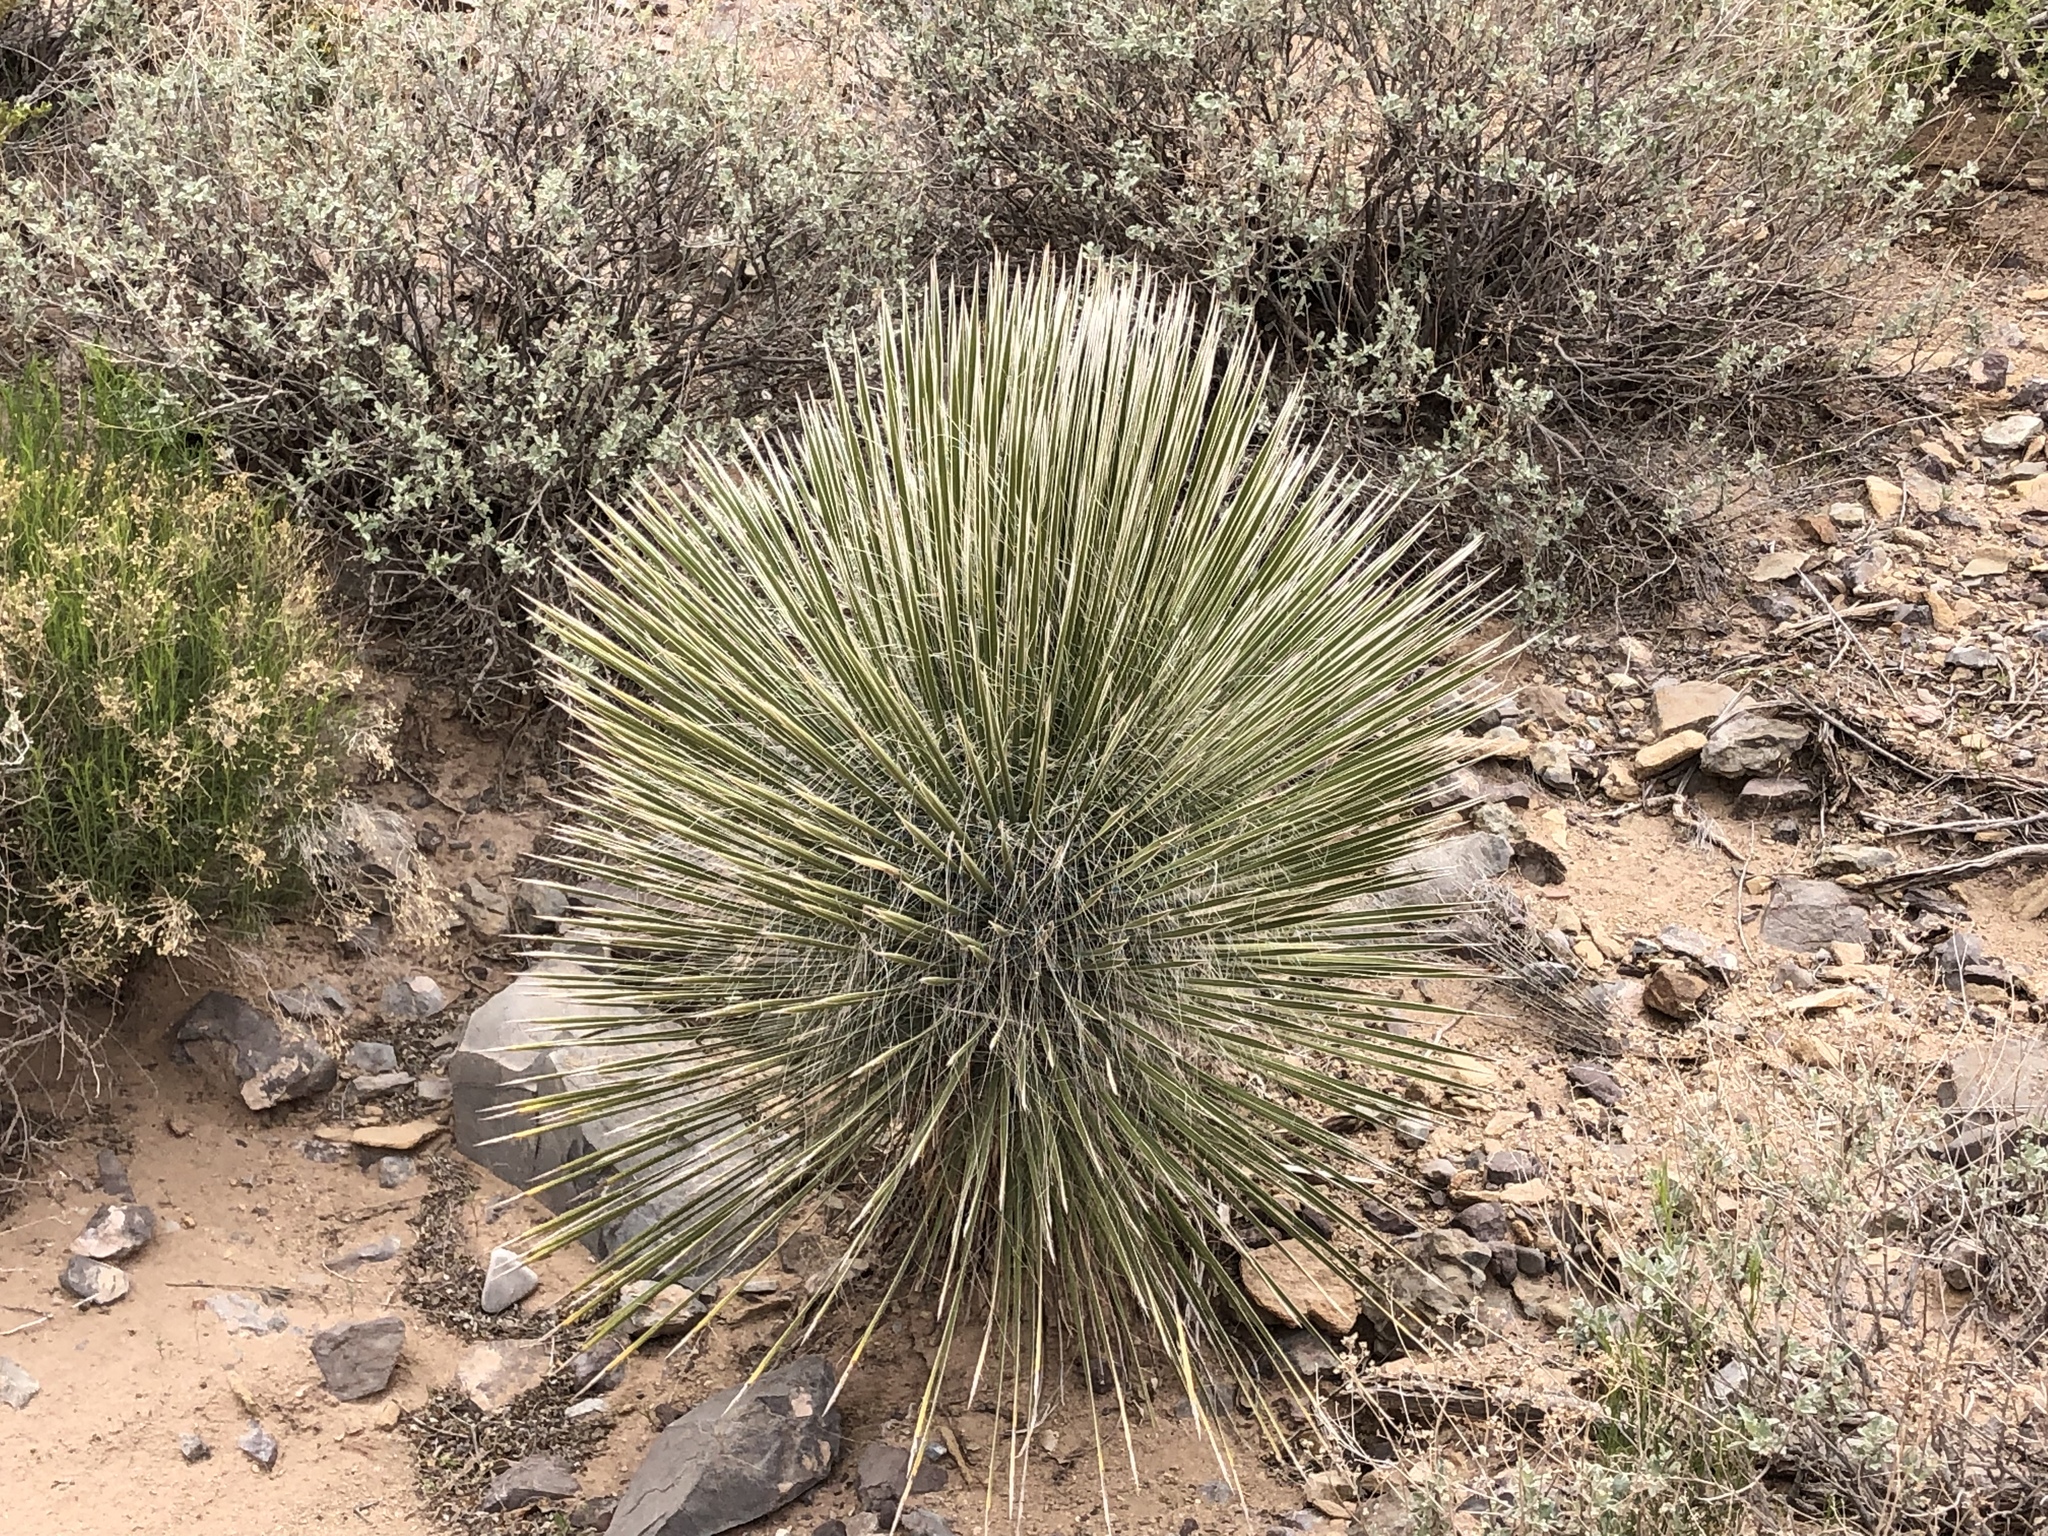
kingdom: Plantae
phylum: Tracheophyta
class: Liliopsida
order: Asparagales
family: Asparagaceae
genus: Yucca
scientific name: Yucca elata
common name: Palmella
